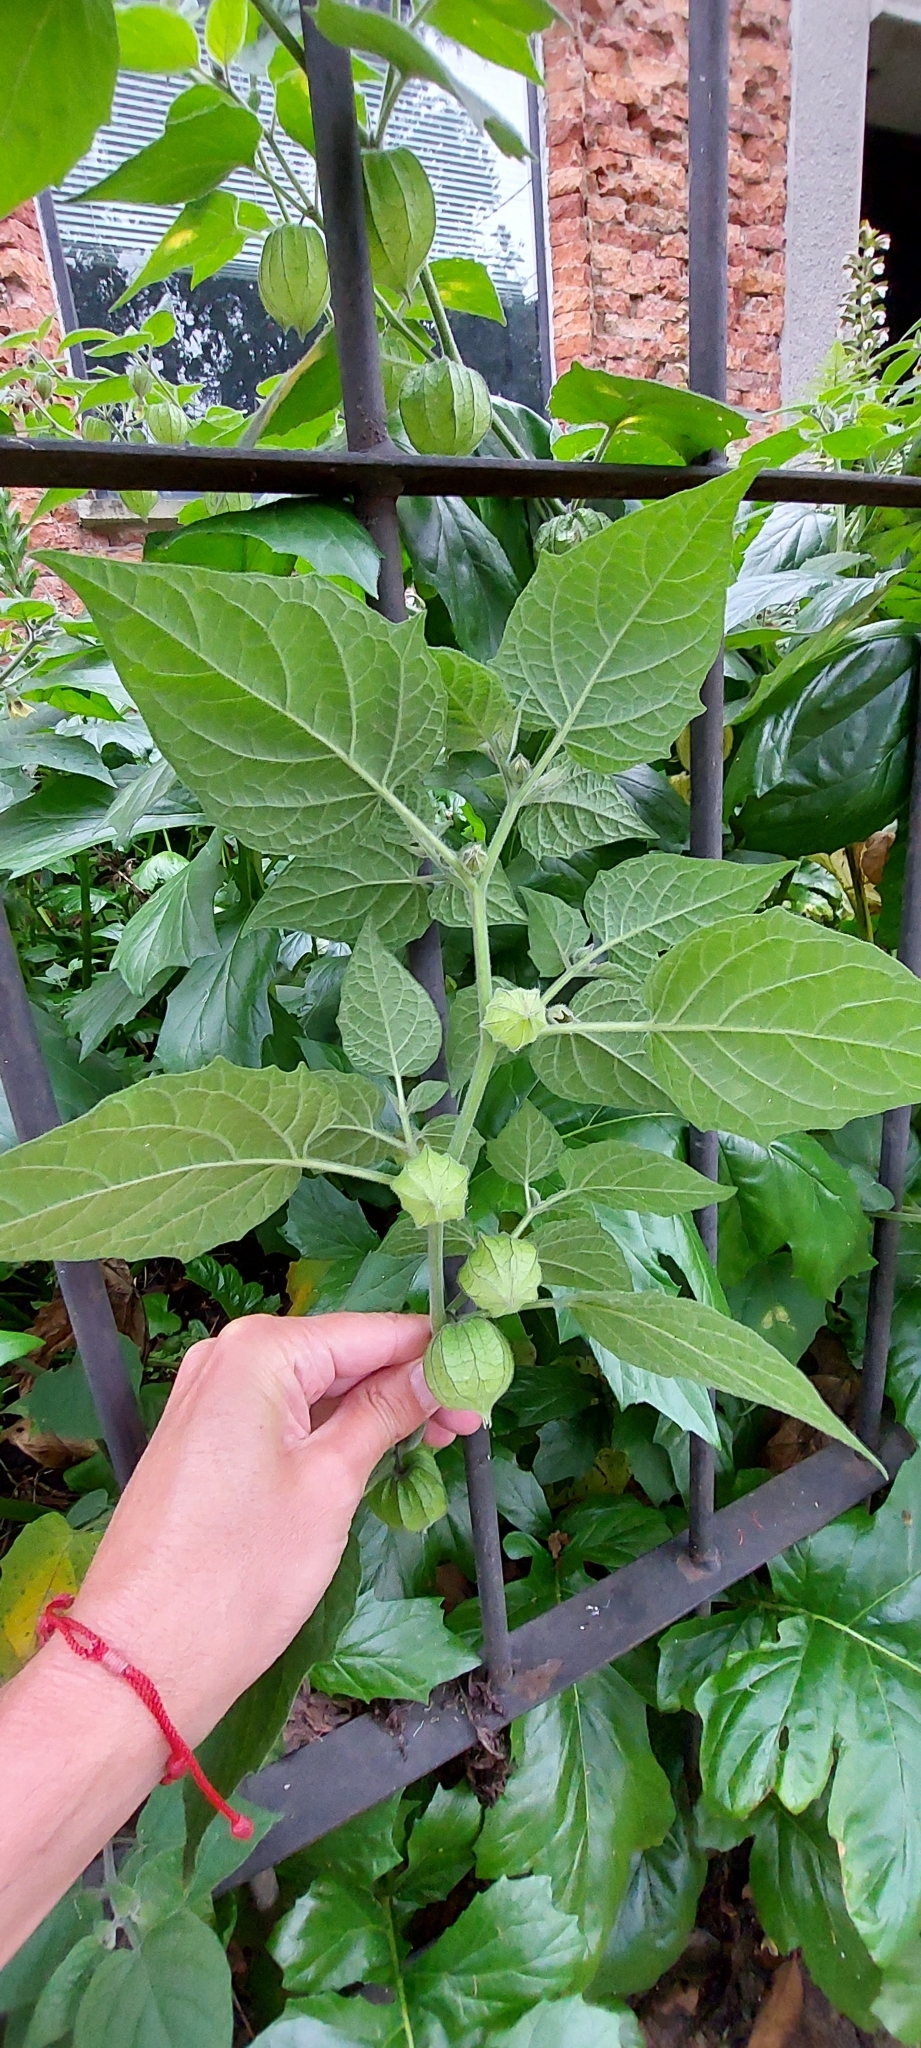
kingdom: Plantae
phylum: Tracheophyta
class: Magnoliopsida
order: Solanales
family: Solanaceae
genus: Physalis
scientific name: Physalis peruviana
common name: Cape-gooseberry
